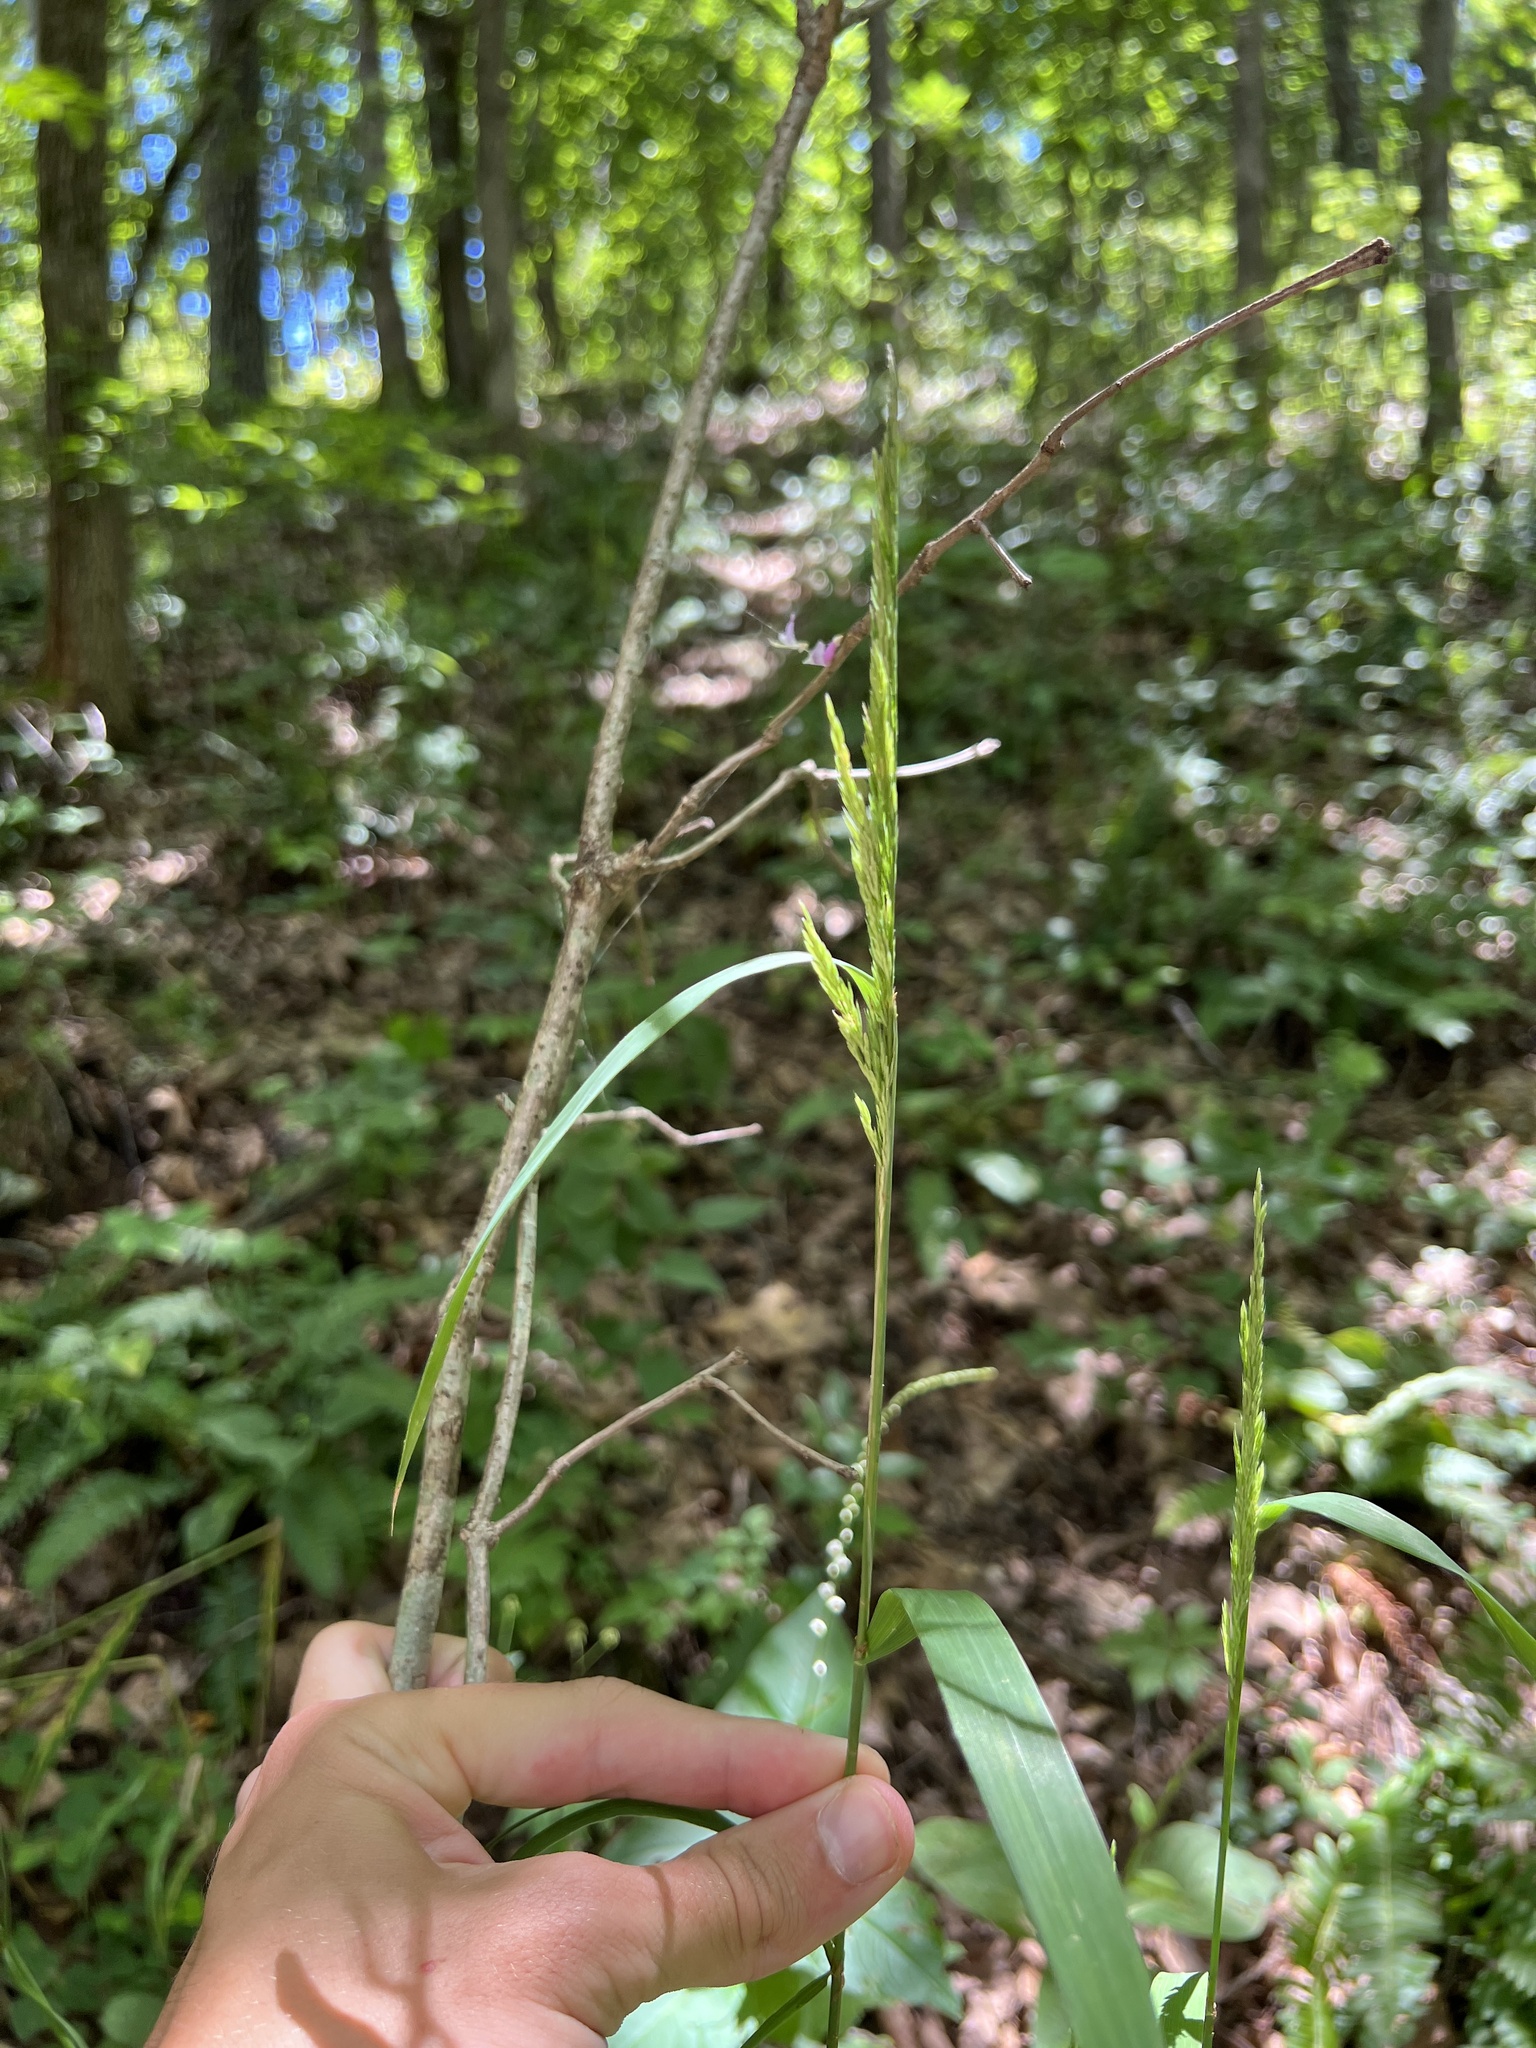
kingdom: Plantae
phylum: Tracheophyta
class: Liliopsida
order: Poales
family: Poaceae
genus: Cinna
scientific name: Cinna arundinacea
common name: Stout woodreed
